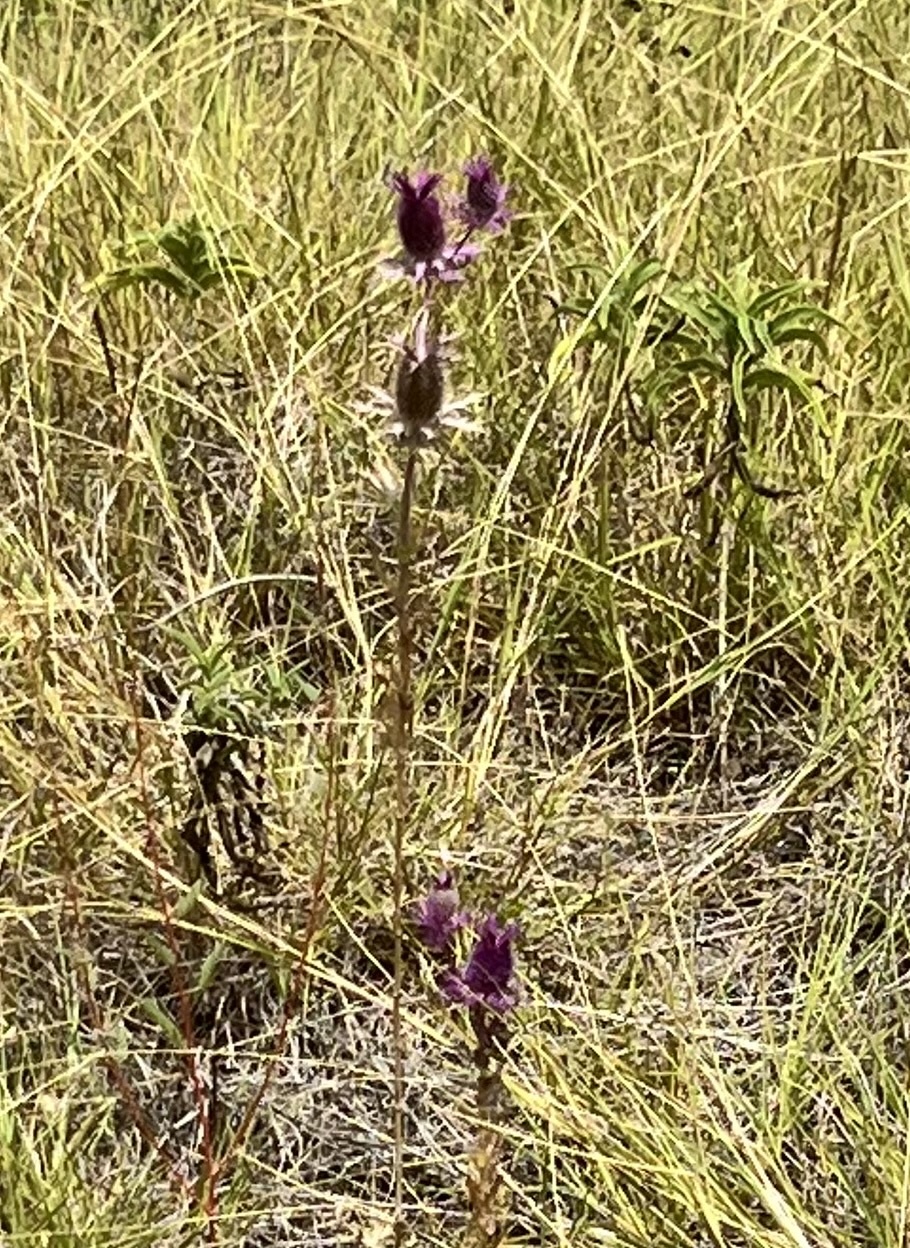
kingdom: Plantae
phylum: Tracheophyta
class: Magnoliopsida
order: Apiales
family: Apiaceae
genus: Eryngium
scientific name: Eryngium leavenworthii
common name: Leavenworth's eryngo
